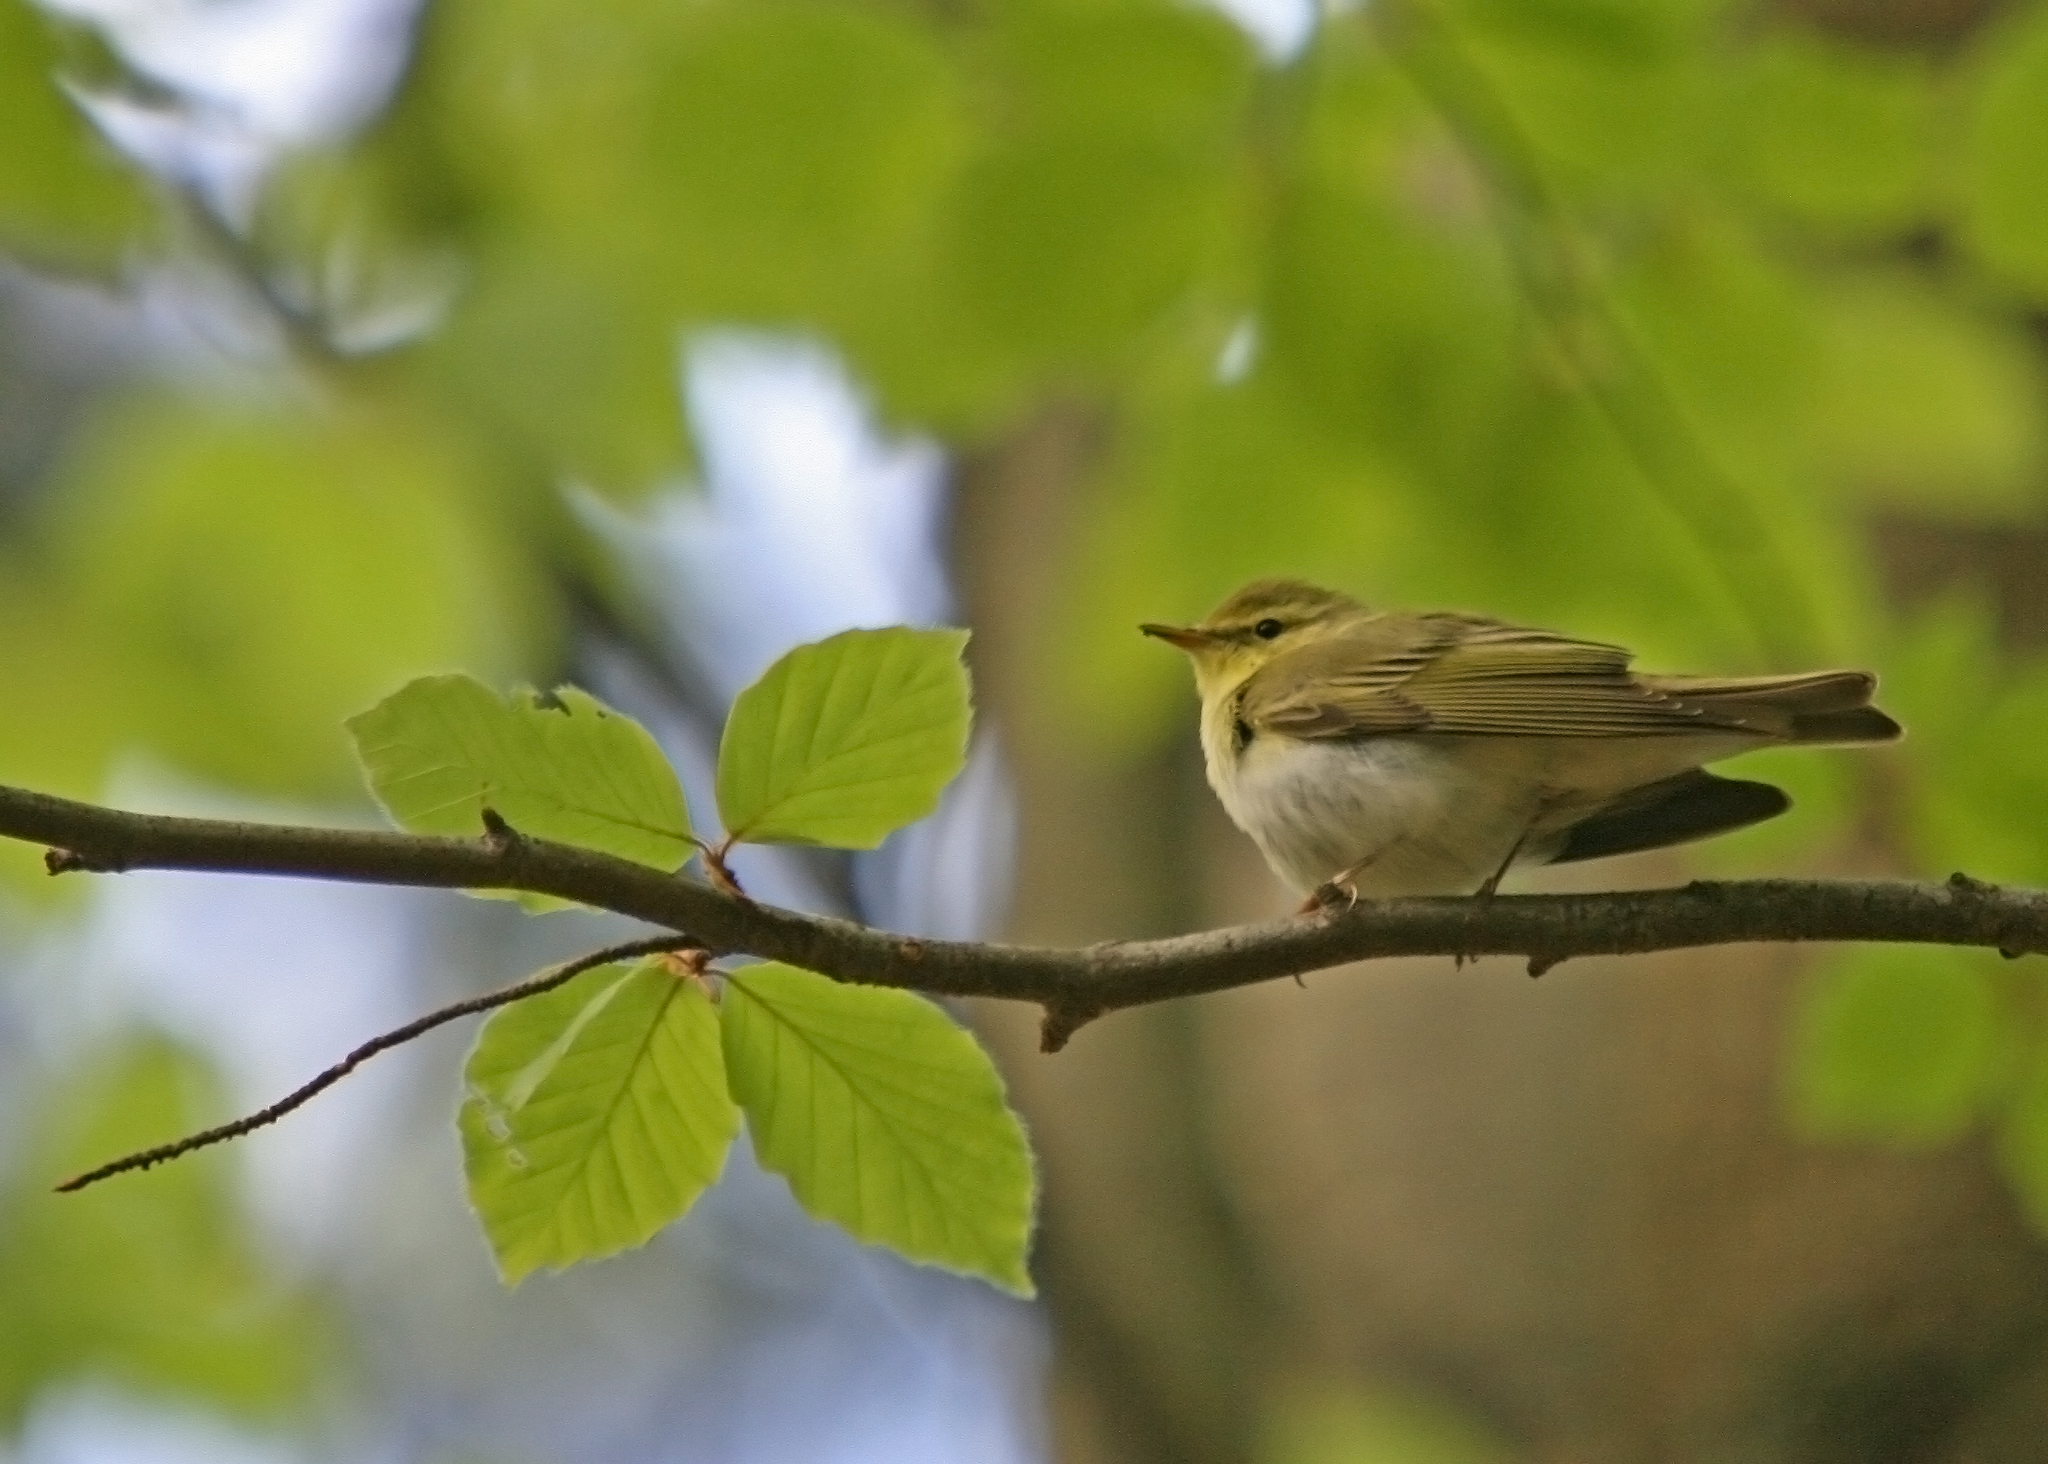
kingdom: Animalia
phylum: Chordata
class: Aves
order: Passeriformes
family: Phylloscopidae
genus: Phylloscopus
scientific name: Phylloscopus sibillatrix
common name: Wood warbler
